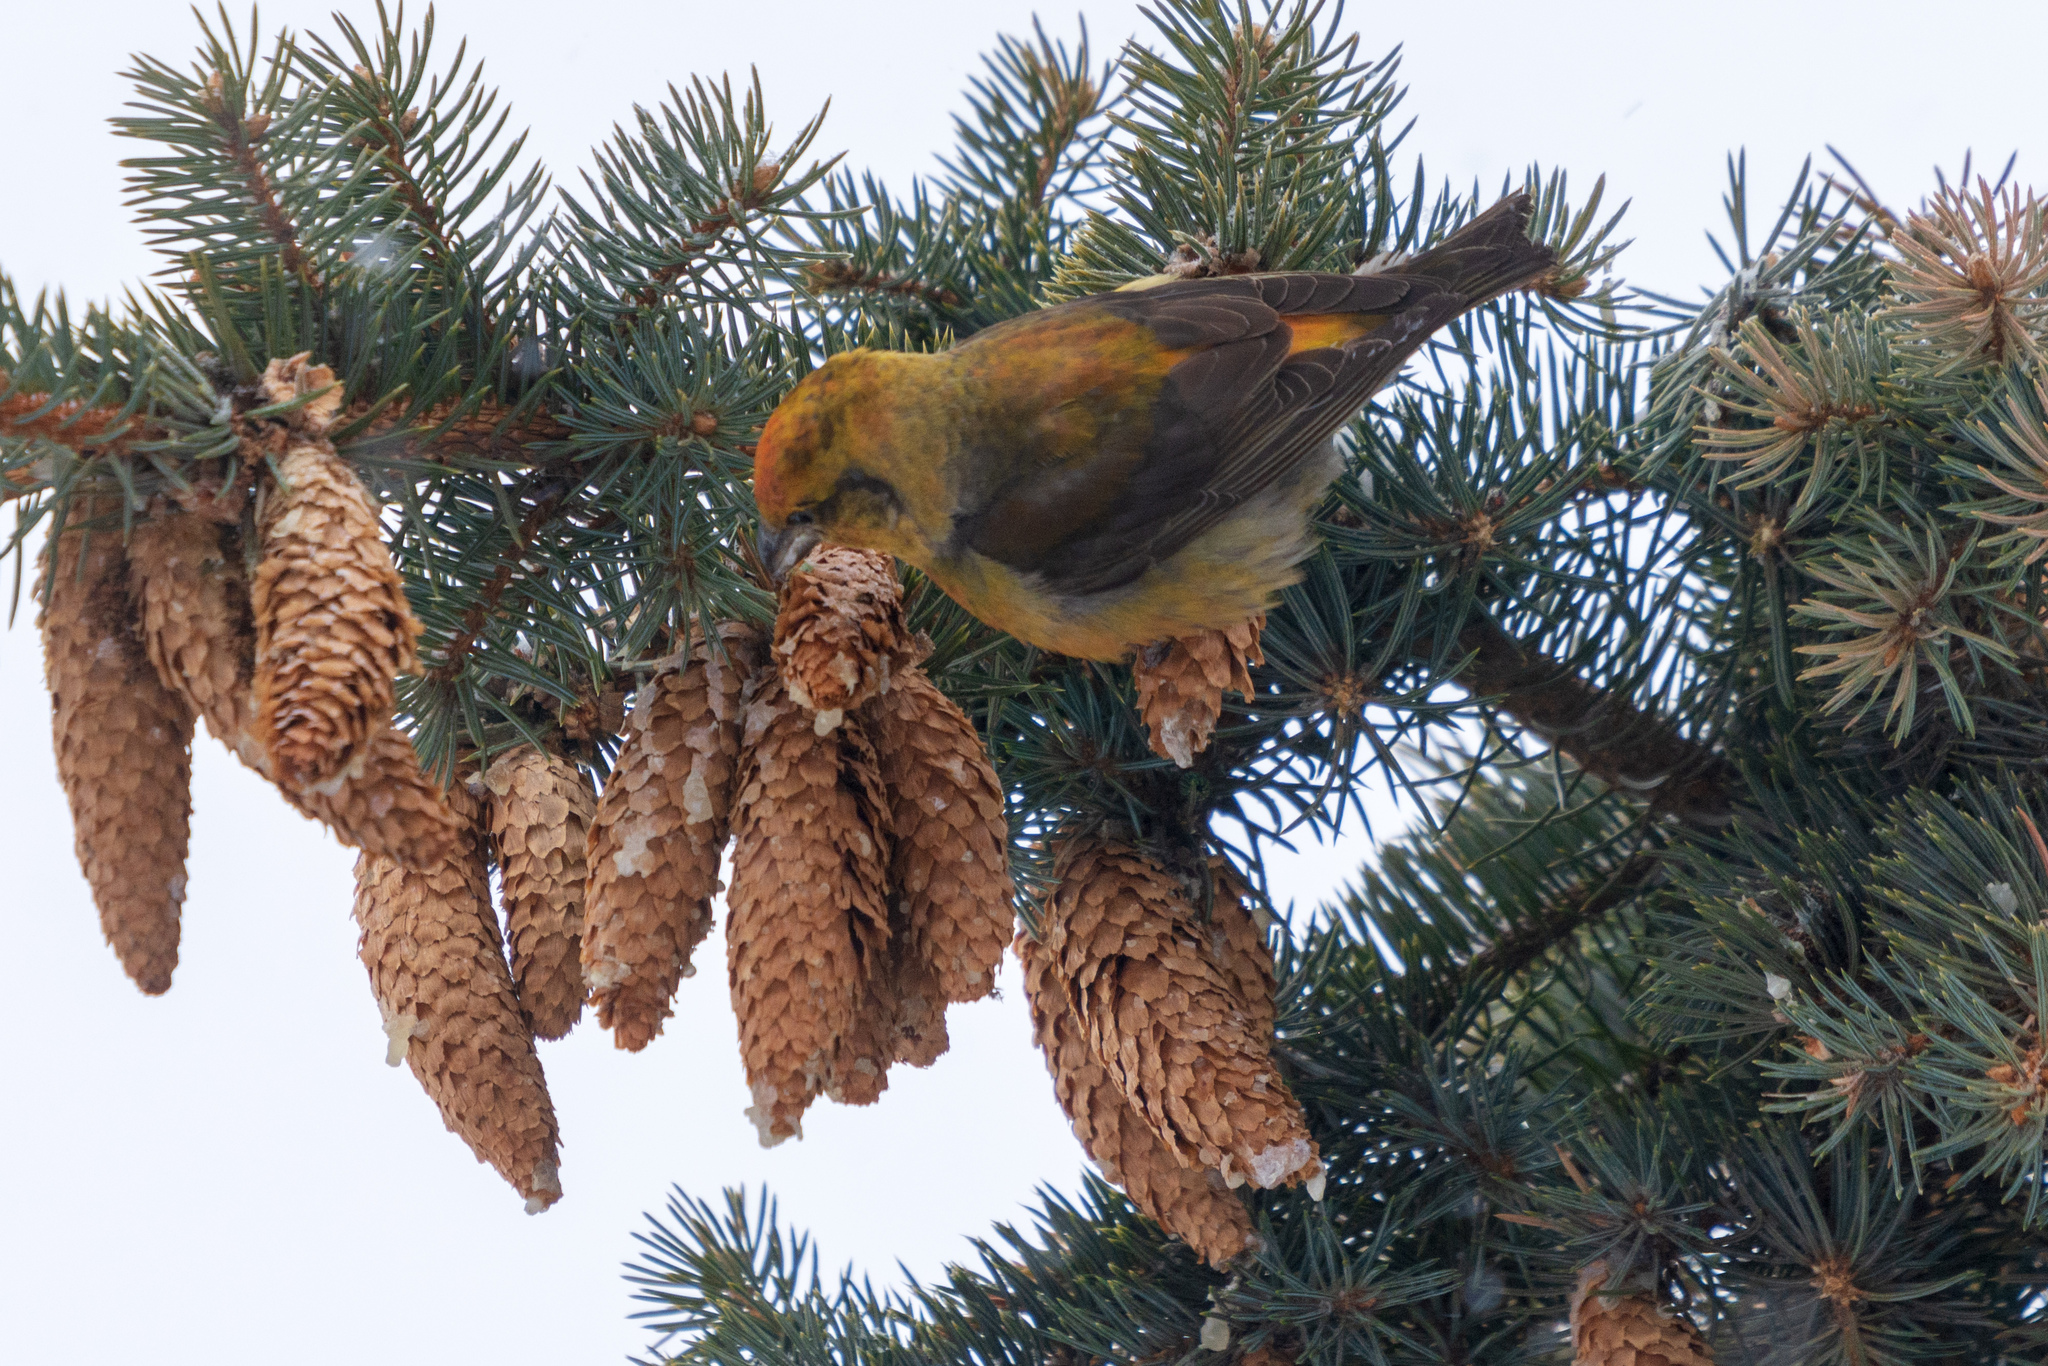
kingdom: Animalia
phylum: Chordata
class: Aves
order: Passeriformes
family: Fringillidae
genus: Loxia
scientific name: Loxia curvirostra
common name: Red crossbill
